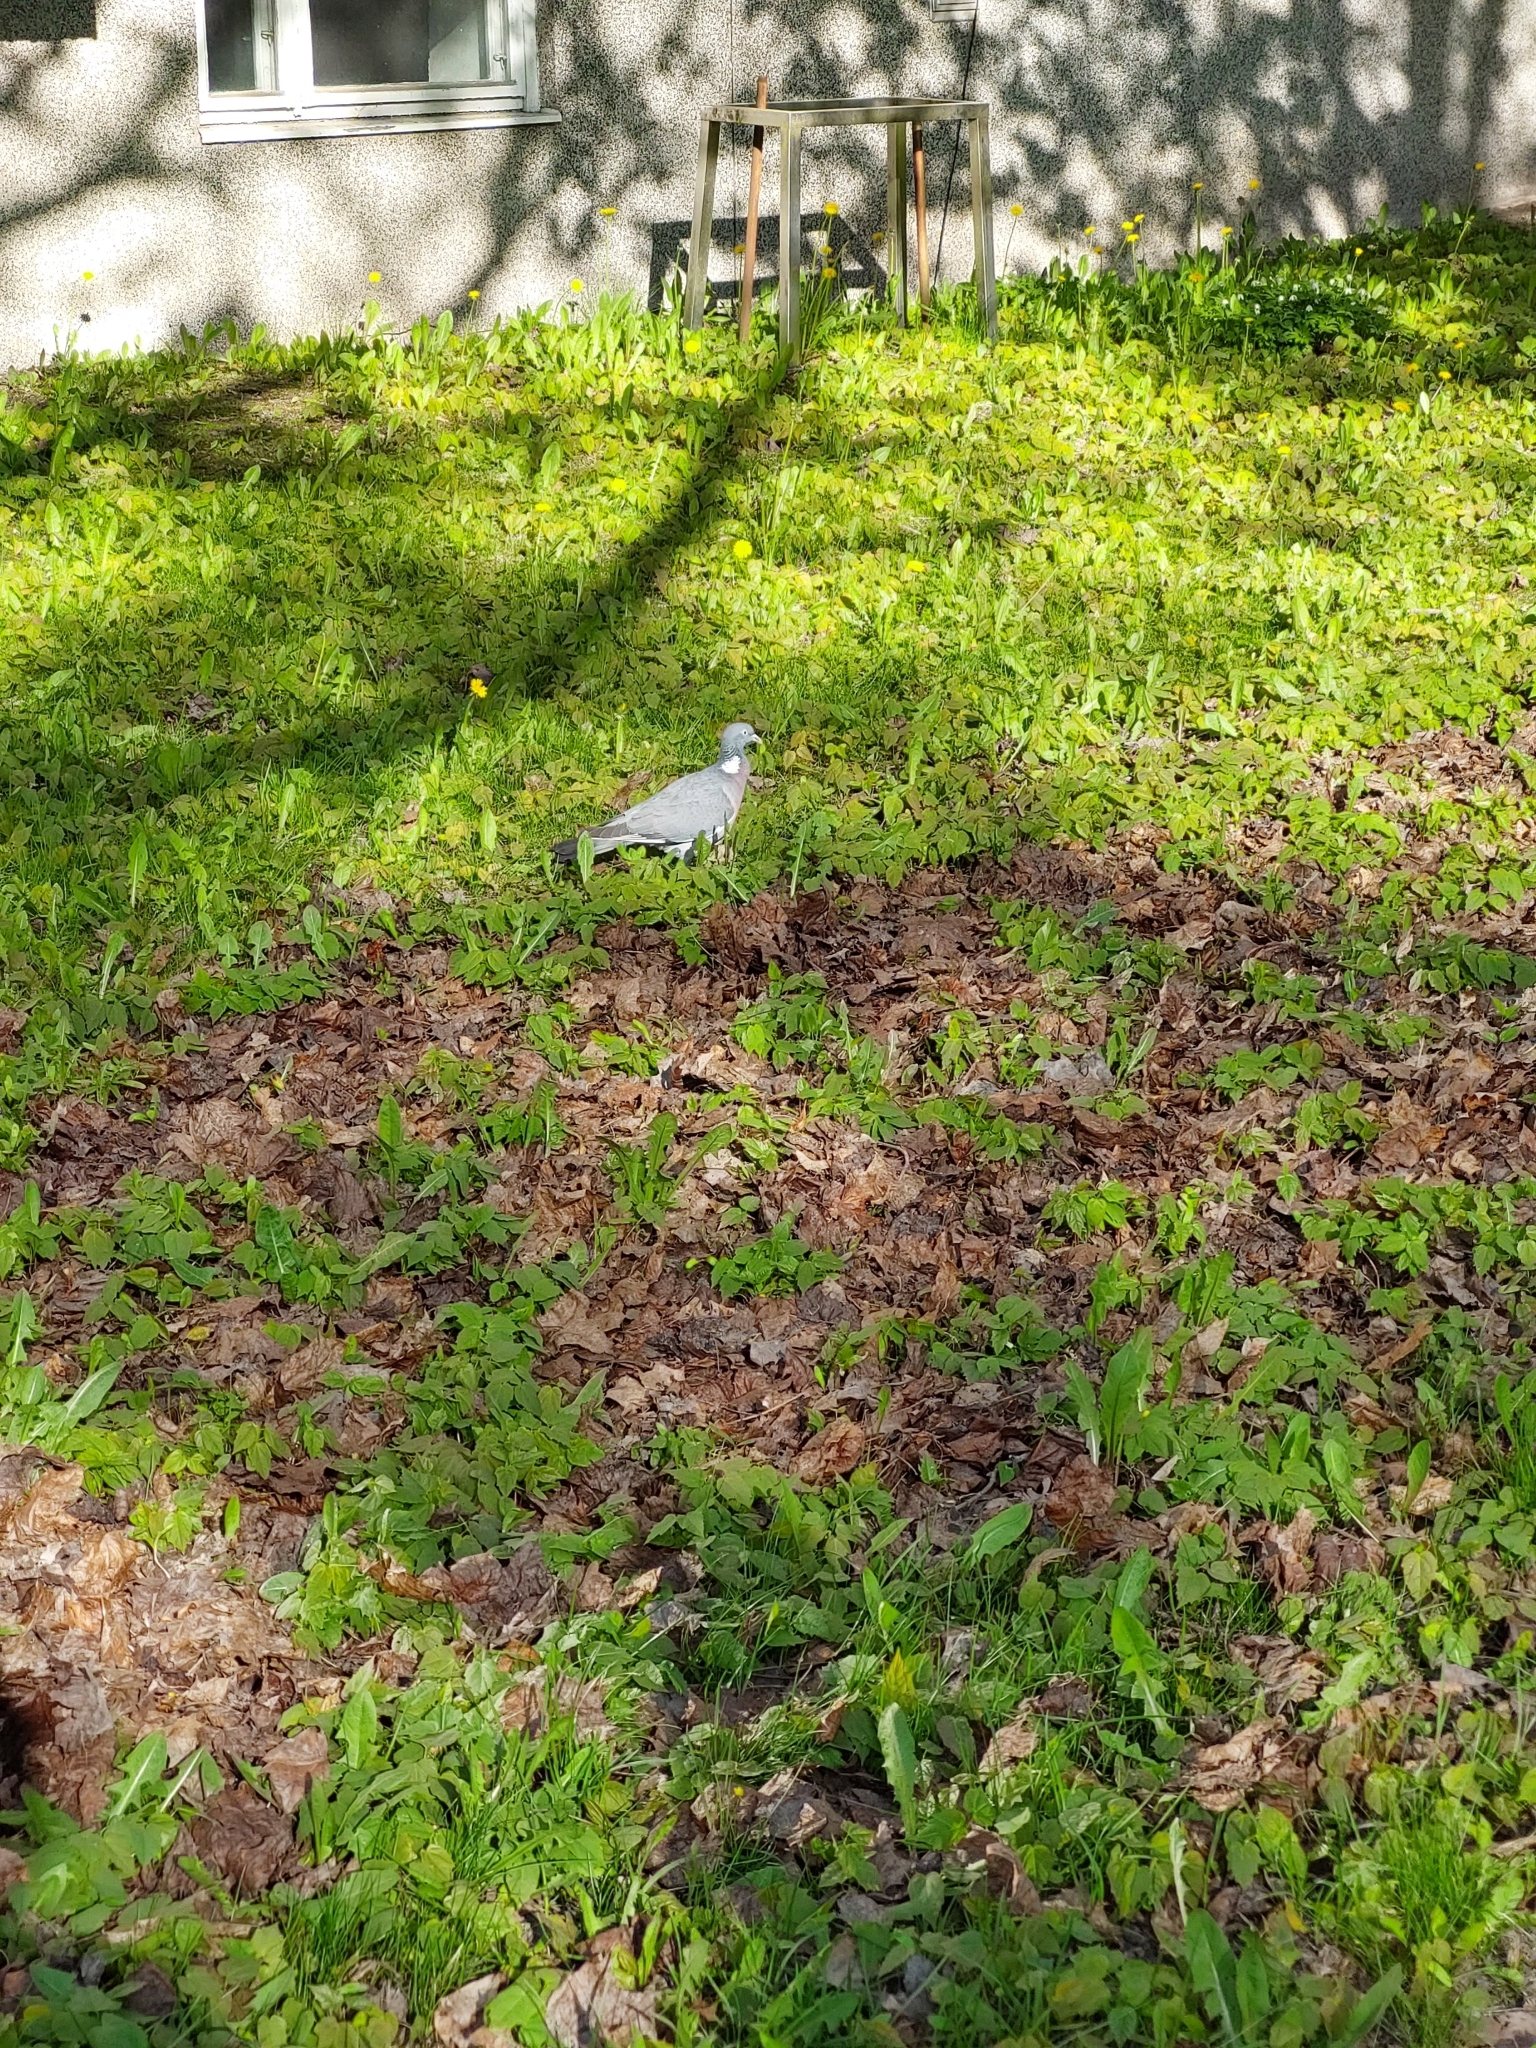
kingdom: Animalia
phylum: Chordata
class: Aves
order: Columbiformes
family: Columbidae
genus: Columba
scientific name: Columba palumbus
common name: Common wood pigeon
